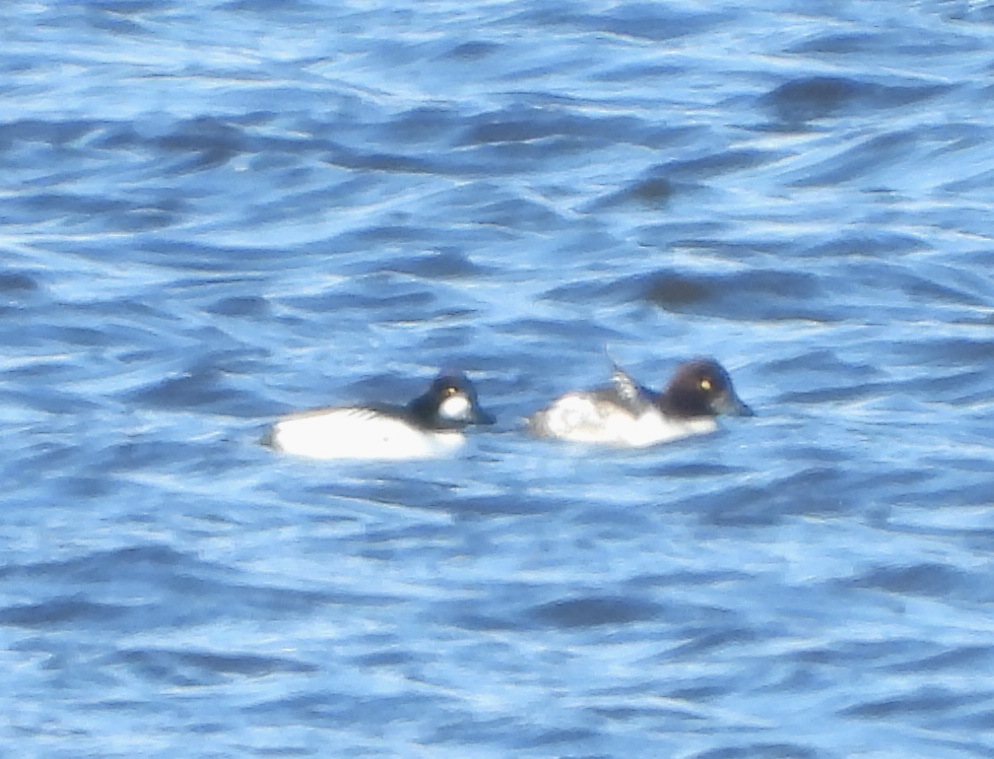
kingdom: Animalia
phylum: Chordata
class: Aves
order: Anseriformes
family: Anatidae
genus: Bucephala
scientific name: Bucephala clangula
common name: Common goldeneye
